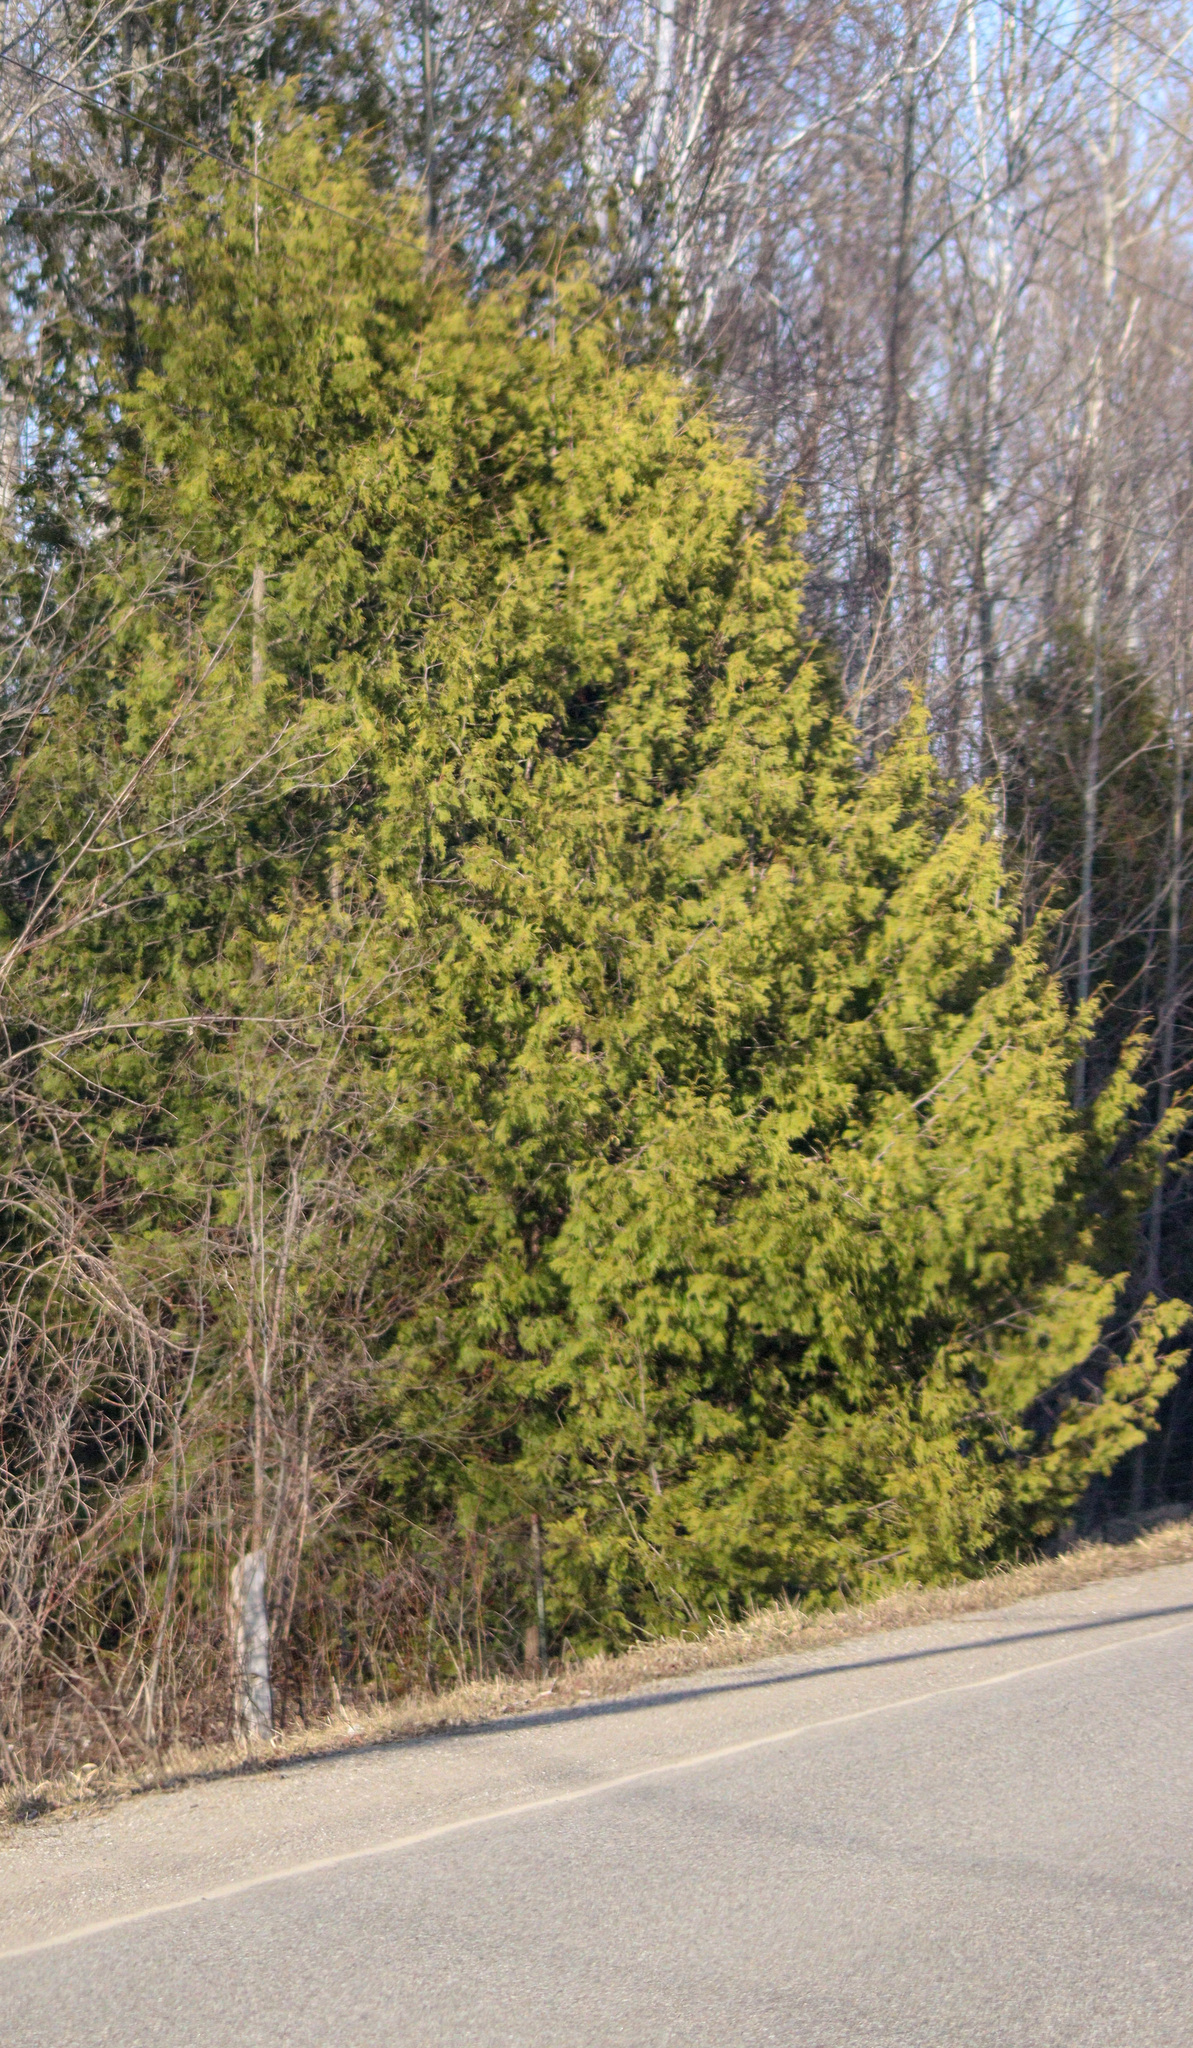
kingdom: Plantae
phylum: Tracheophyta
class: Pinopsida
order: Pinales
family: Cupressaceae
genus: Thuja
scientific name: Thuja occidentalis
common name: Northern white-cedar
